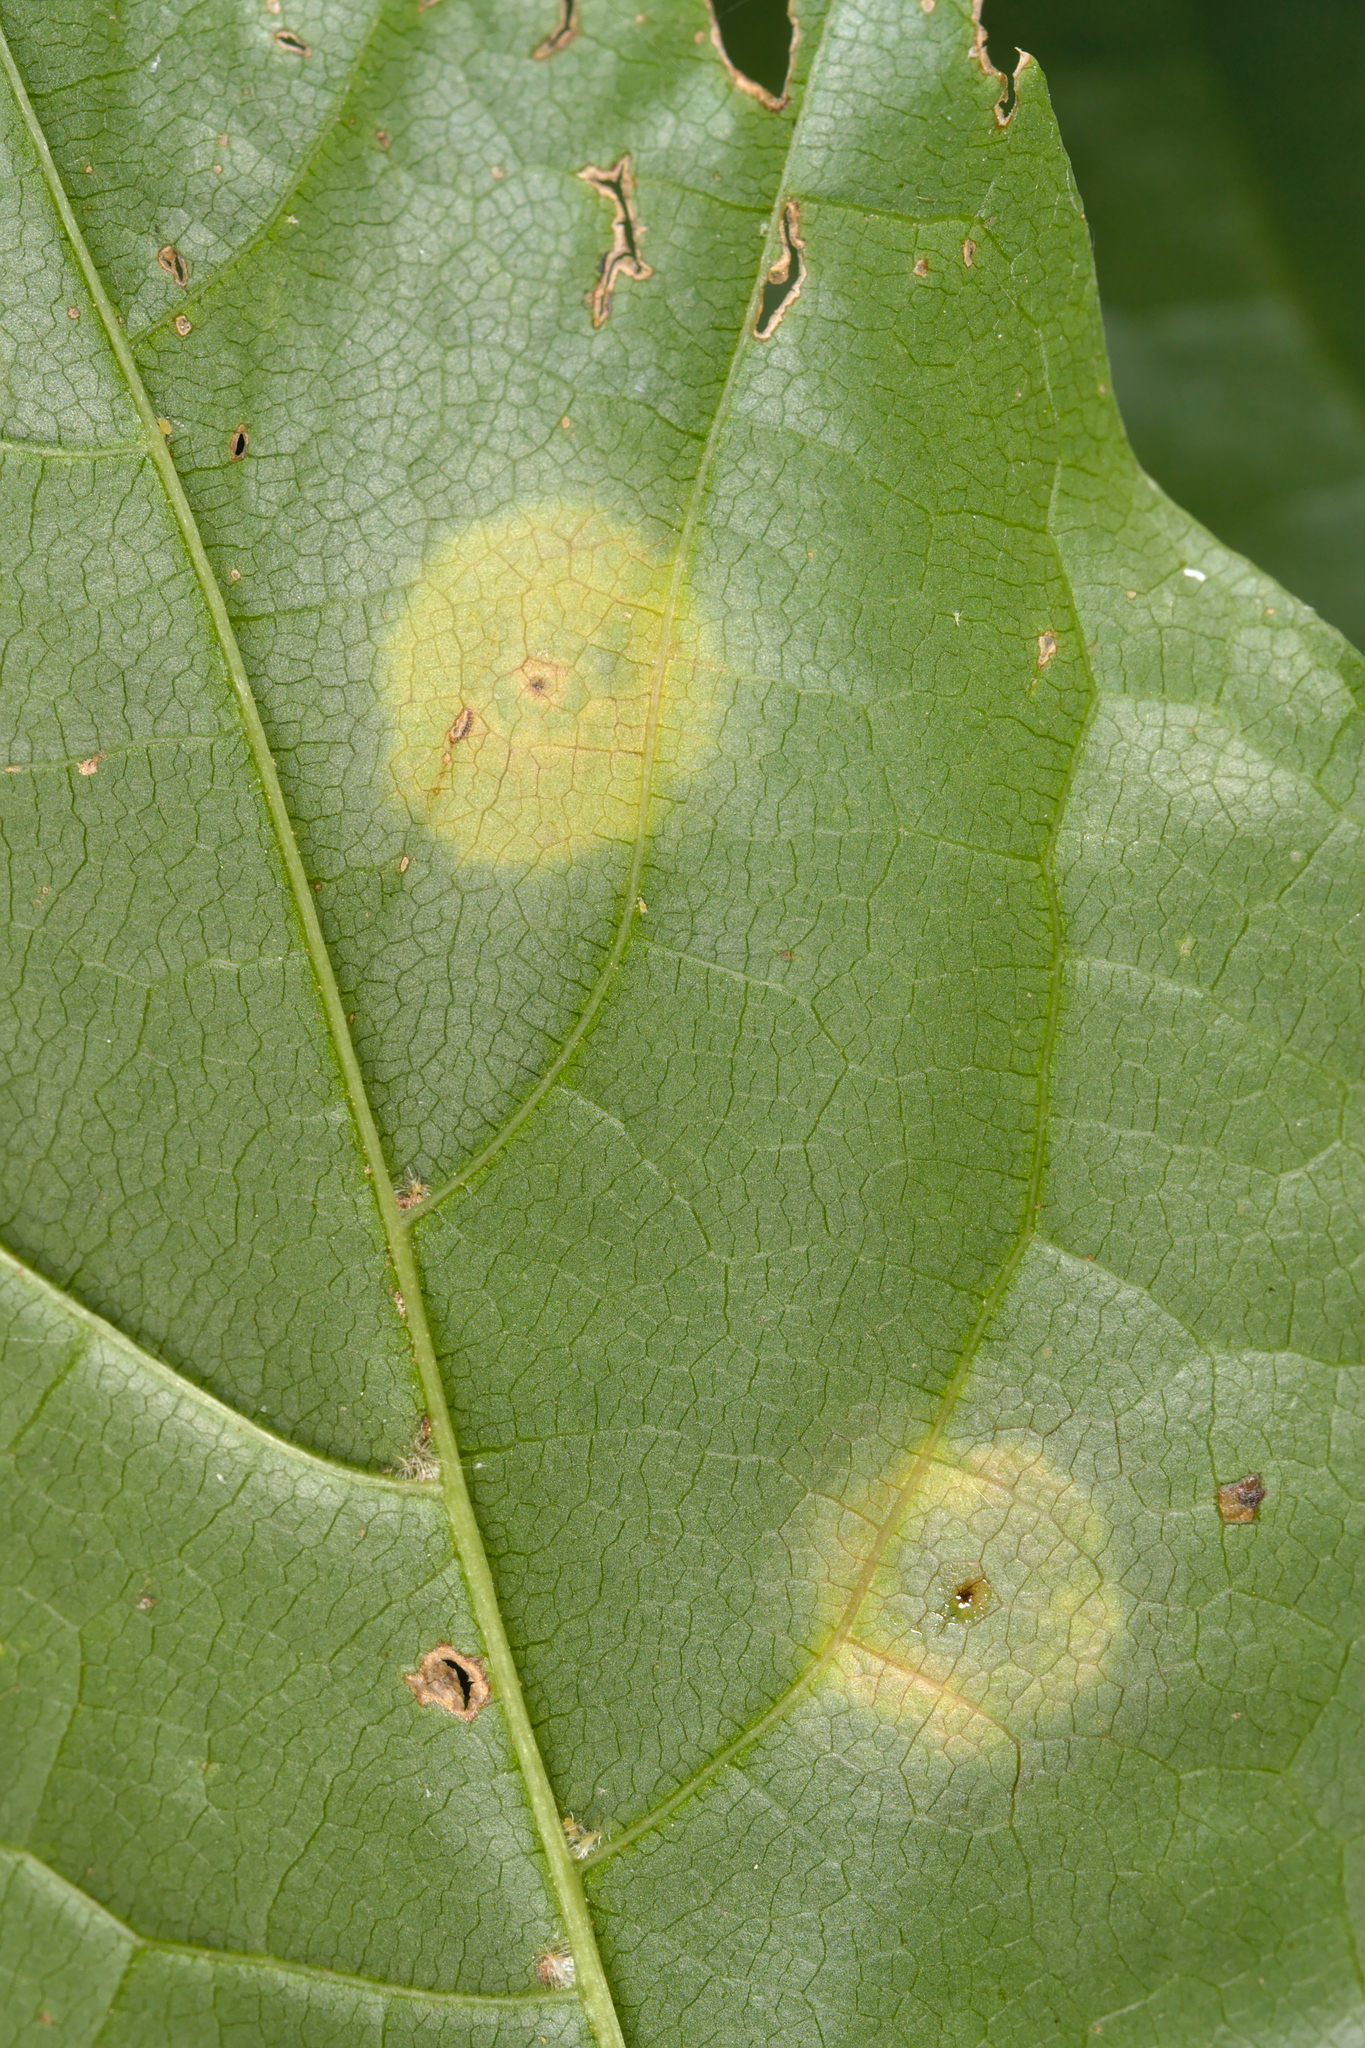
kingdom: Animalia
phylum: Arthropoda
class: Insecta
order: Diptera
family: Cecidomyiidae
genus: Drisina
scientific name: Drisina glutinosa
